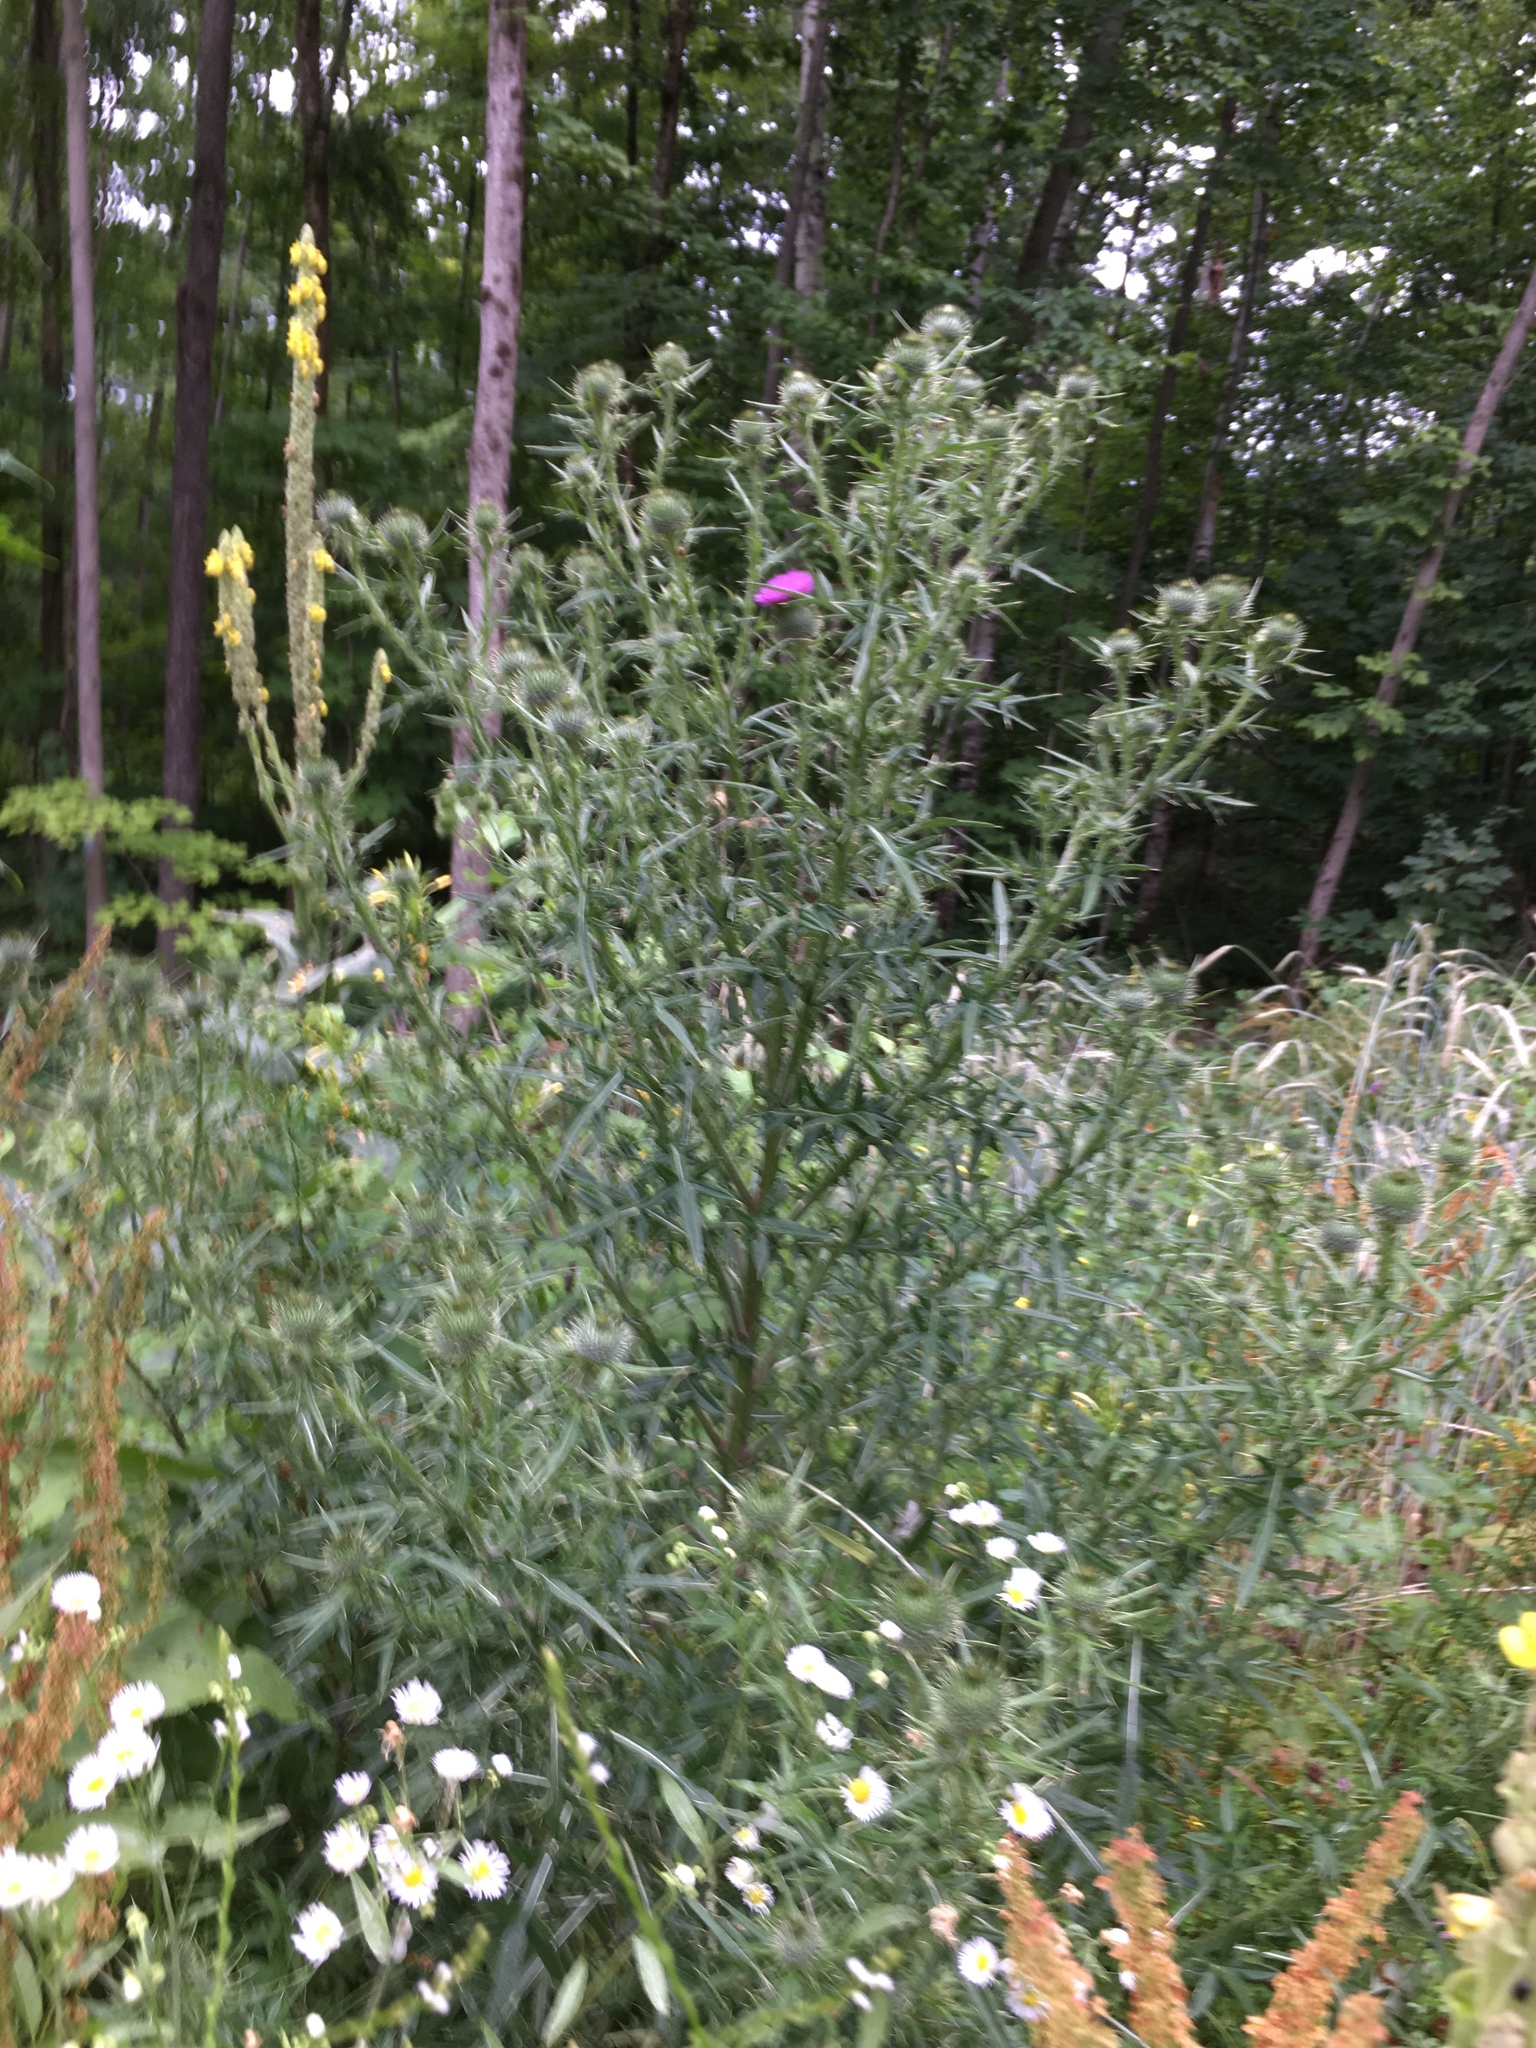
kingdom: Plantae
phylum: Tracheophyta
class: Magnoliopsida
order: Asterales
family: Asteraceae
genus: Cirsium
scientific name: Cirsium vulgare
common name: Bull thistle
